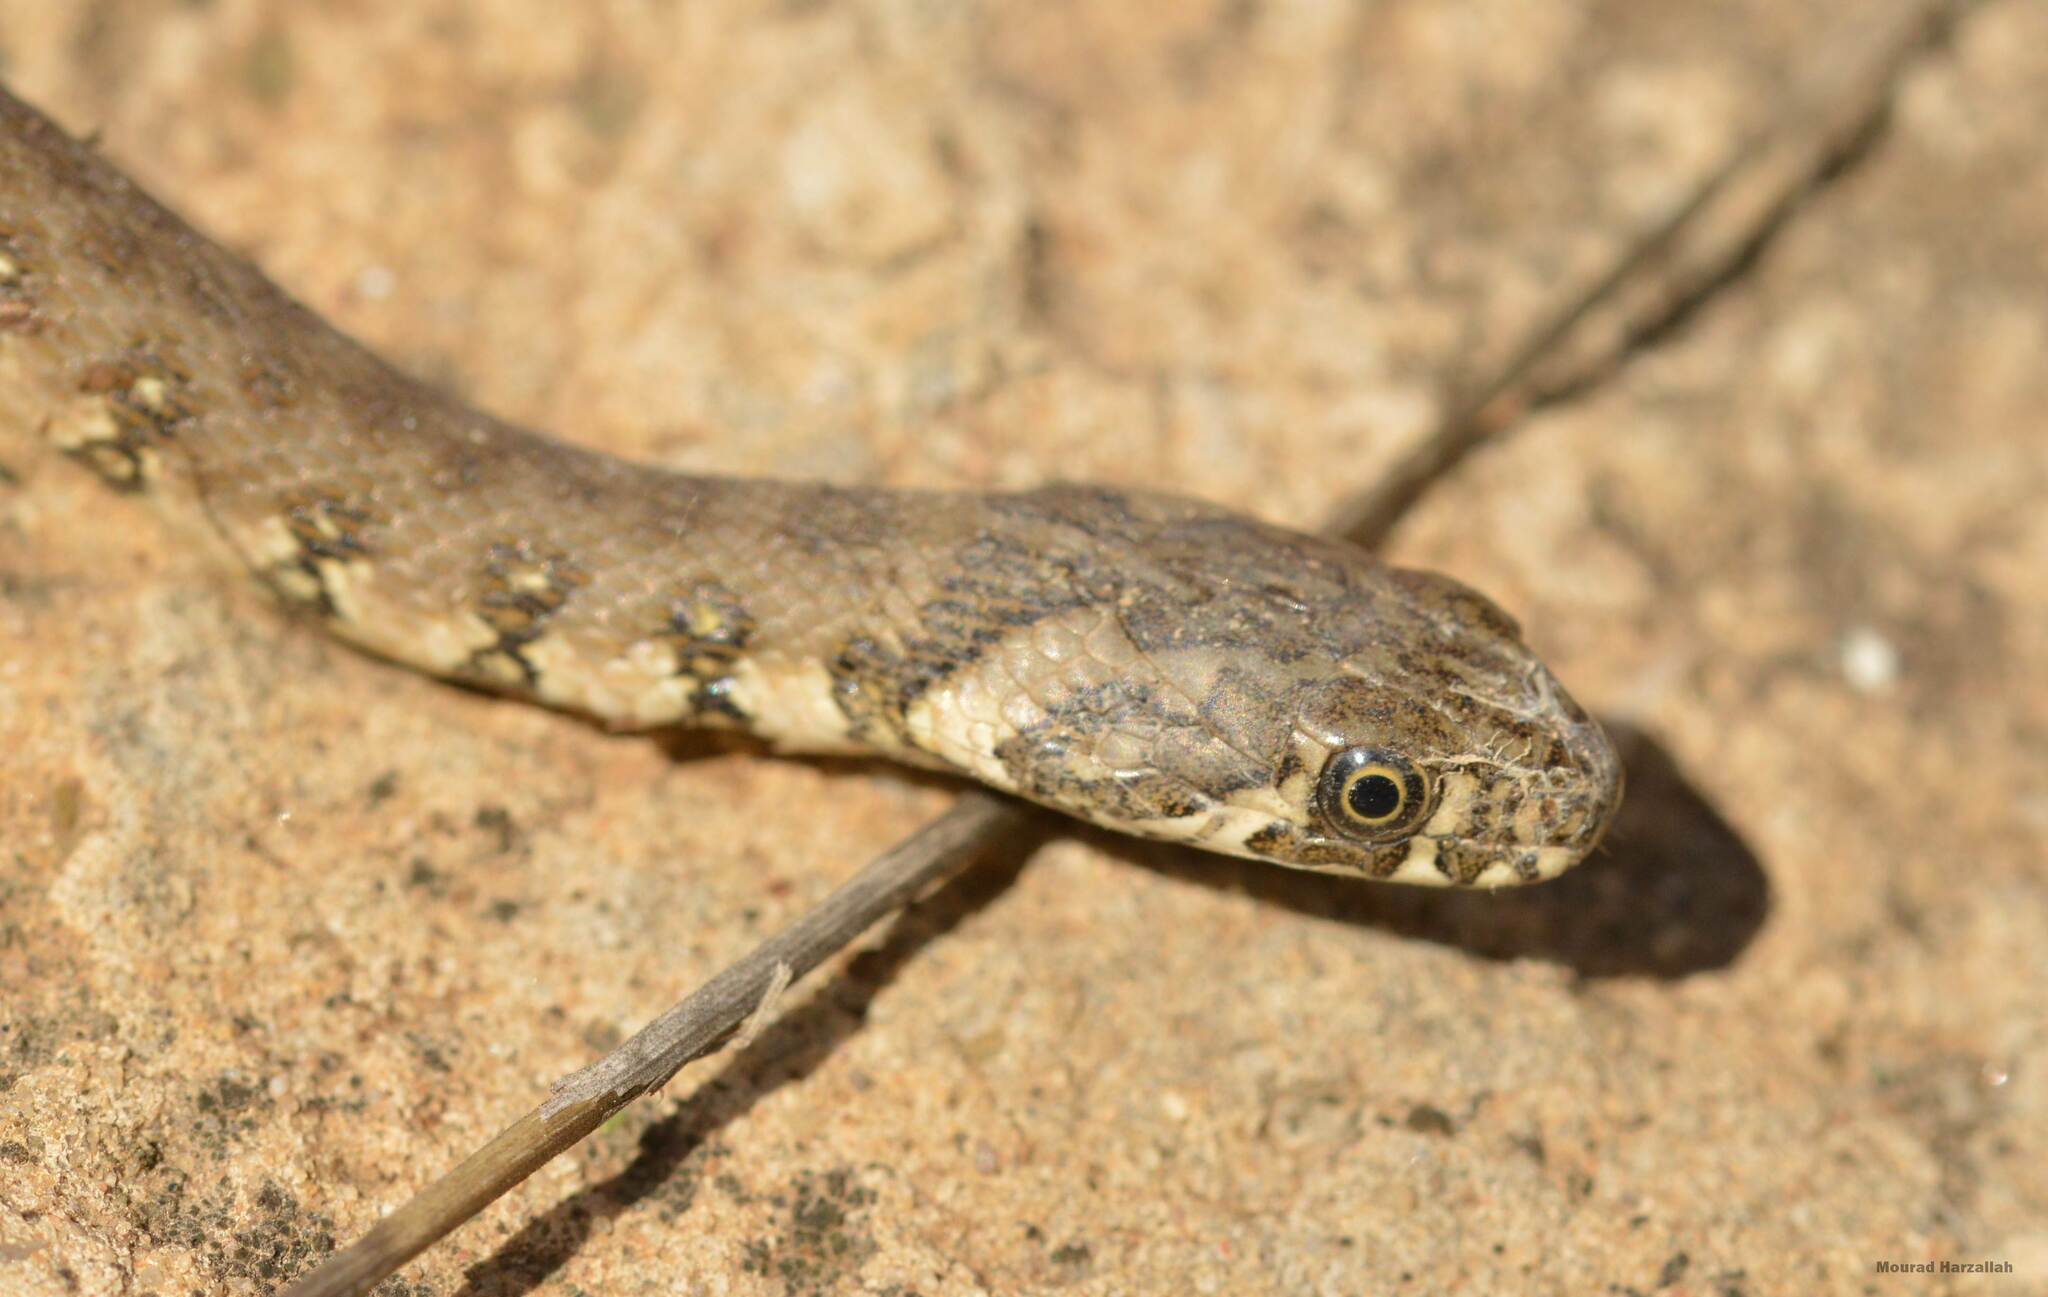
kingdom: Animalia
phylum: Chordata
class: Squamata
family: Colubridae
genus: Natrix
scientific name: Natrix maura
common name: Viperine water snake
